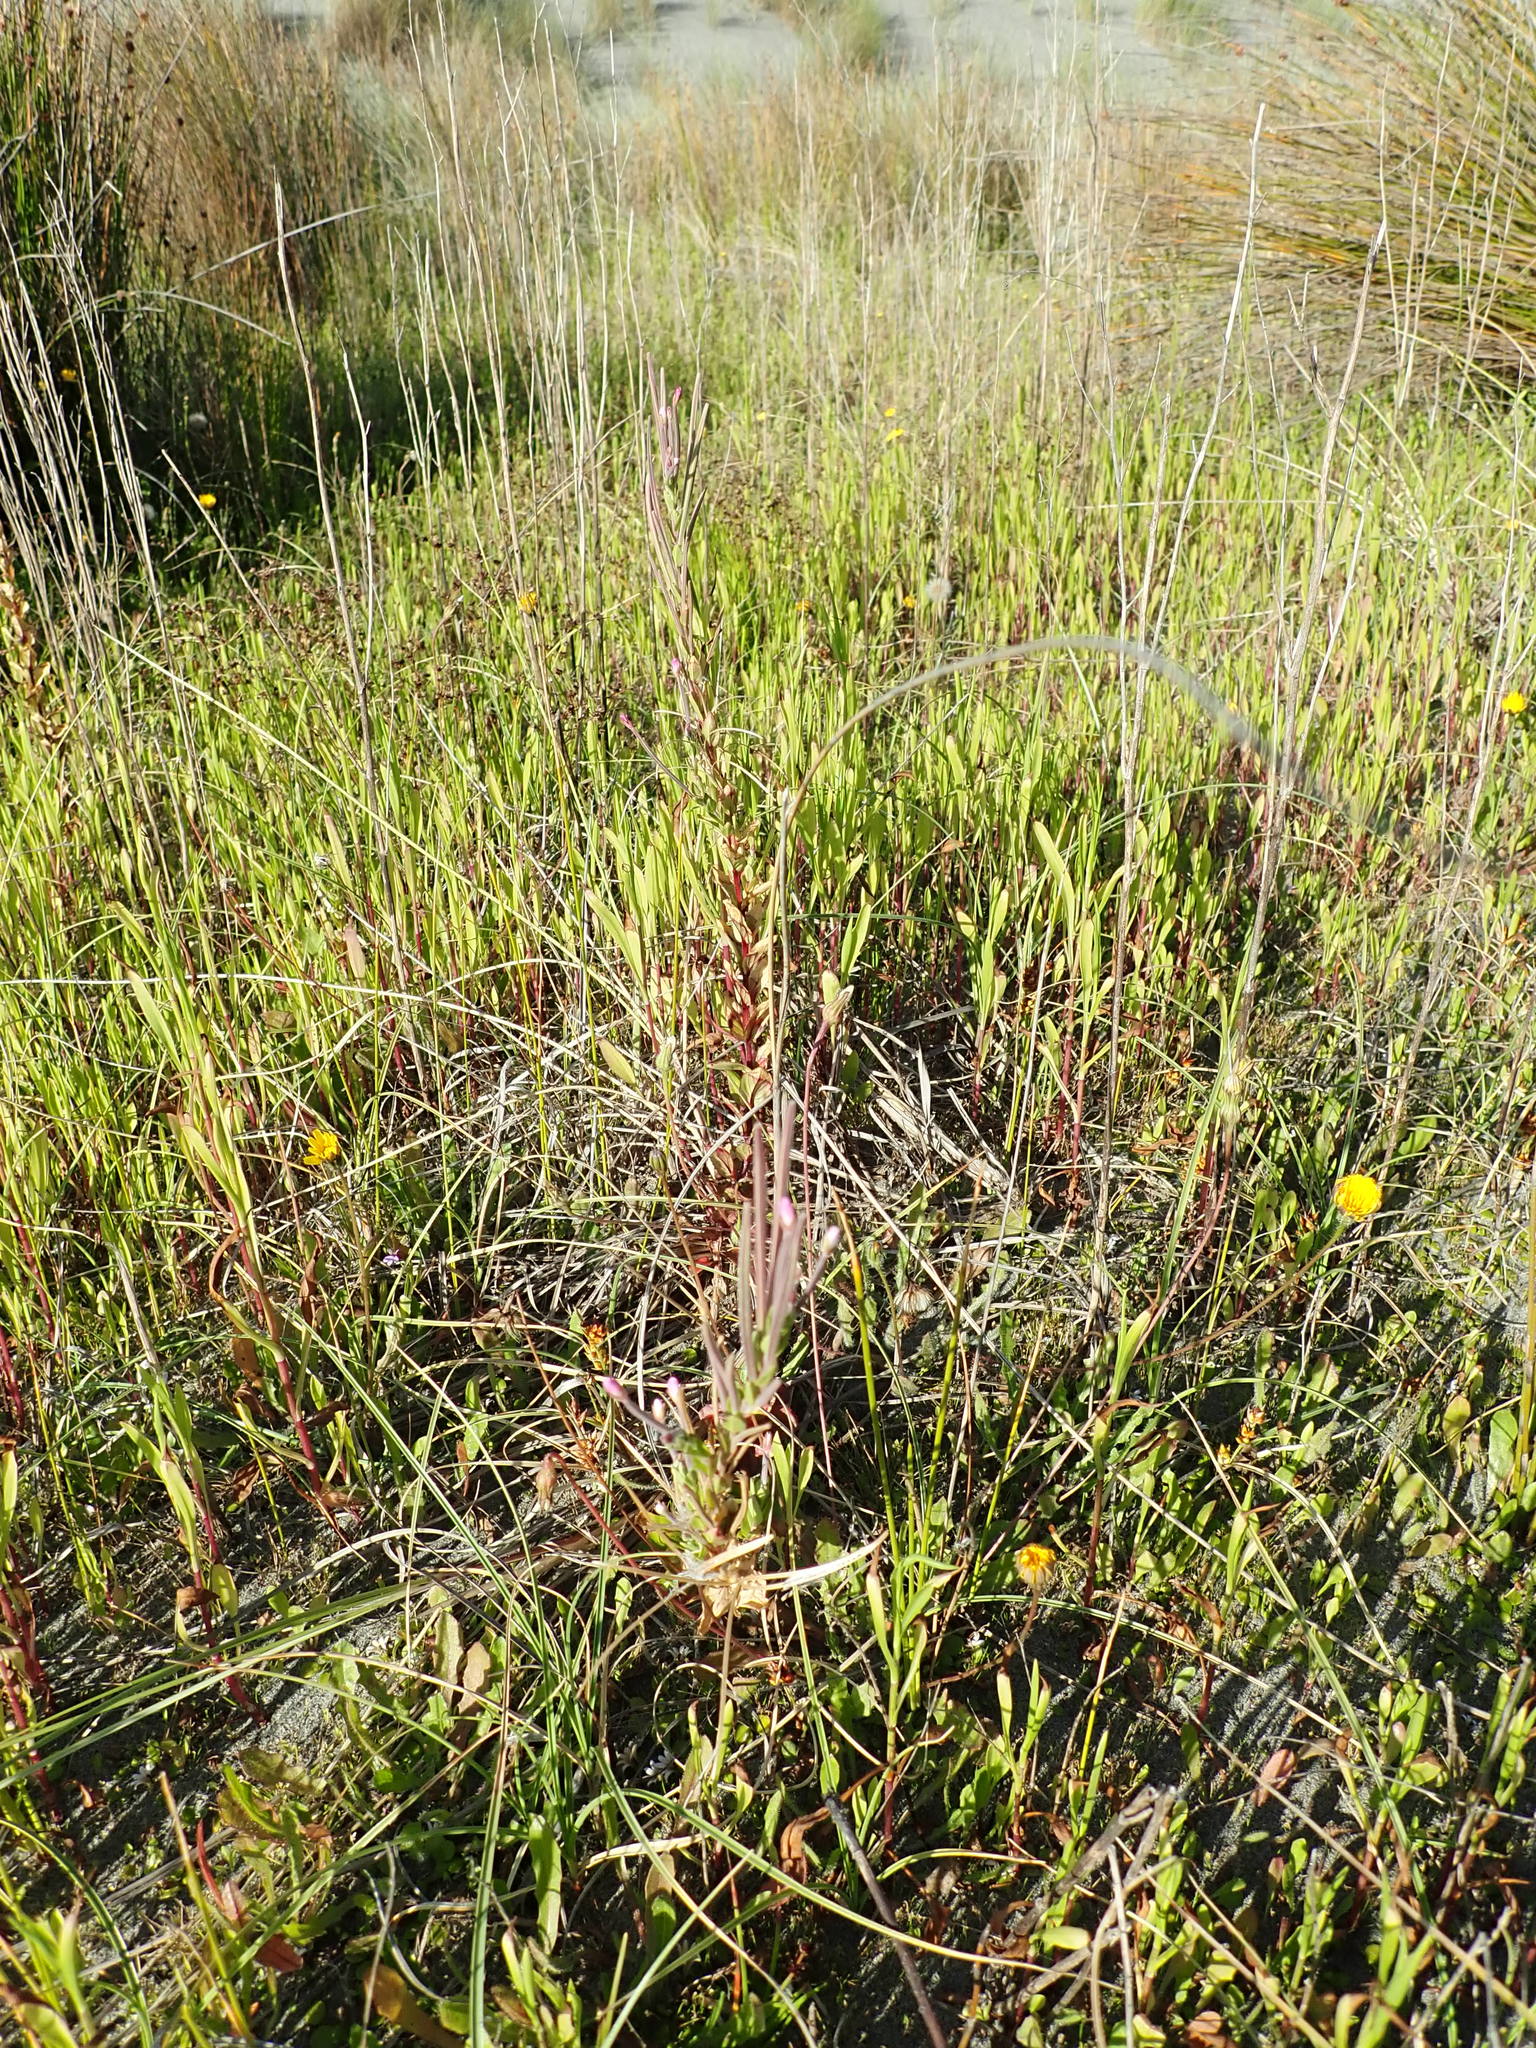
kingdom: Plantae
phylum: Tracheophyta
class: Magnoliopsida
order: Myrtales
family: Onagraceae
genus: Epilobium
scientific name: Epilobium billardiereanum
